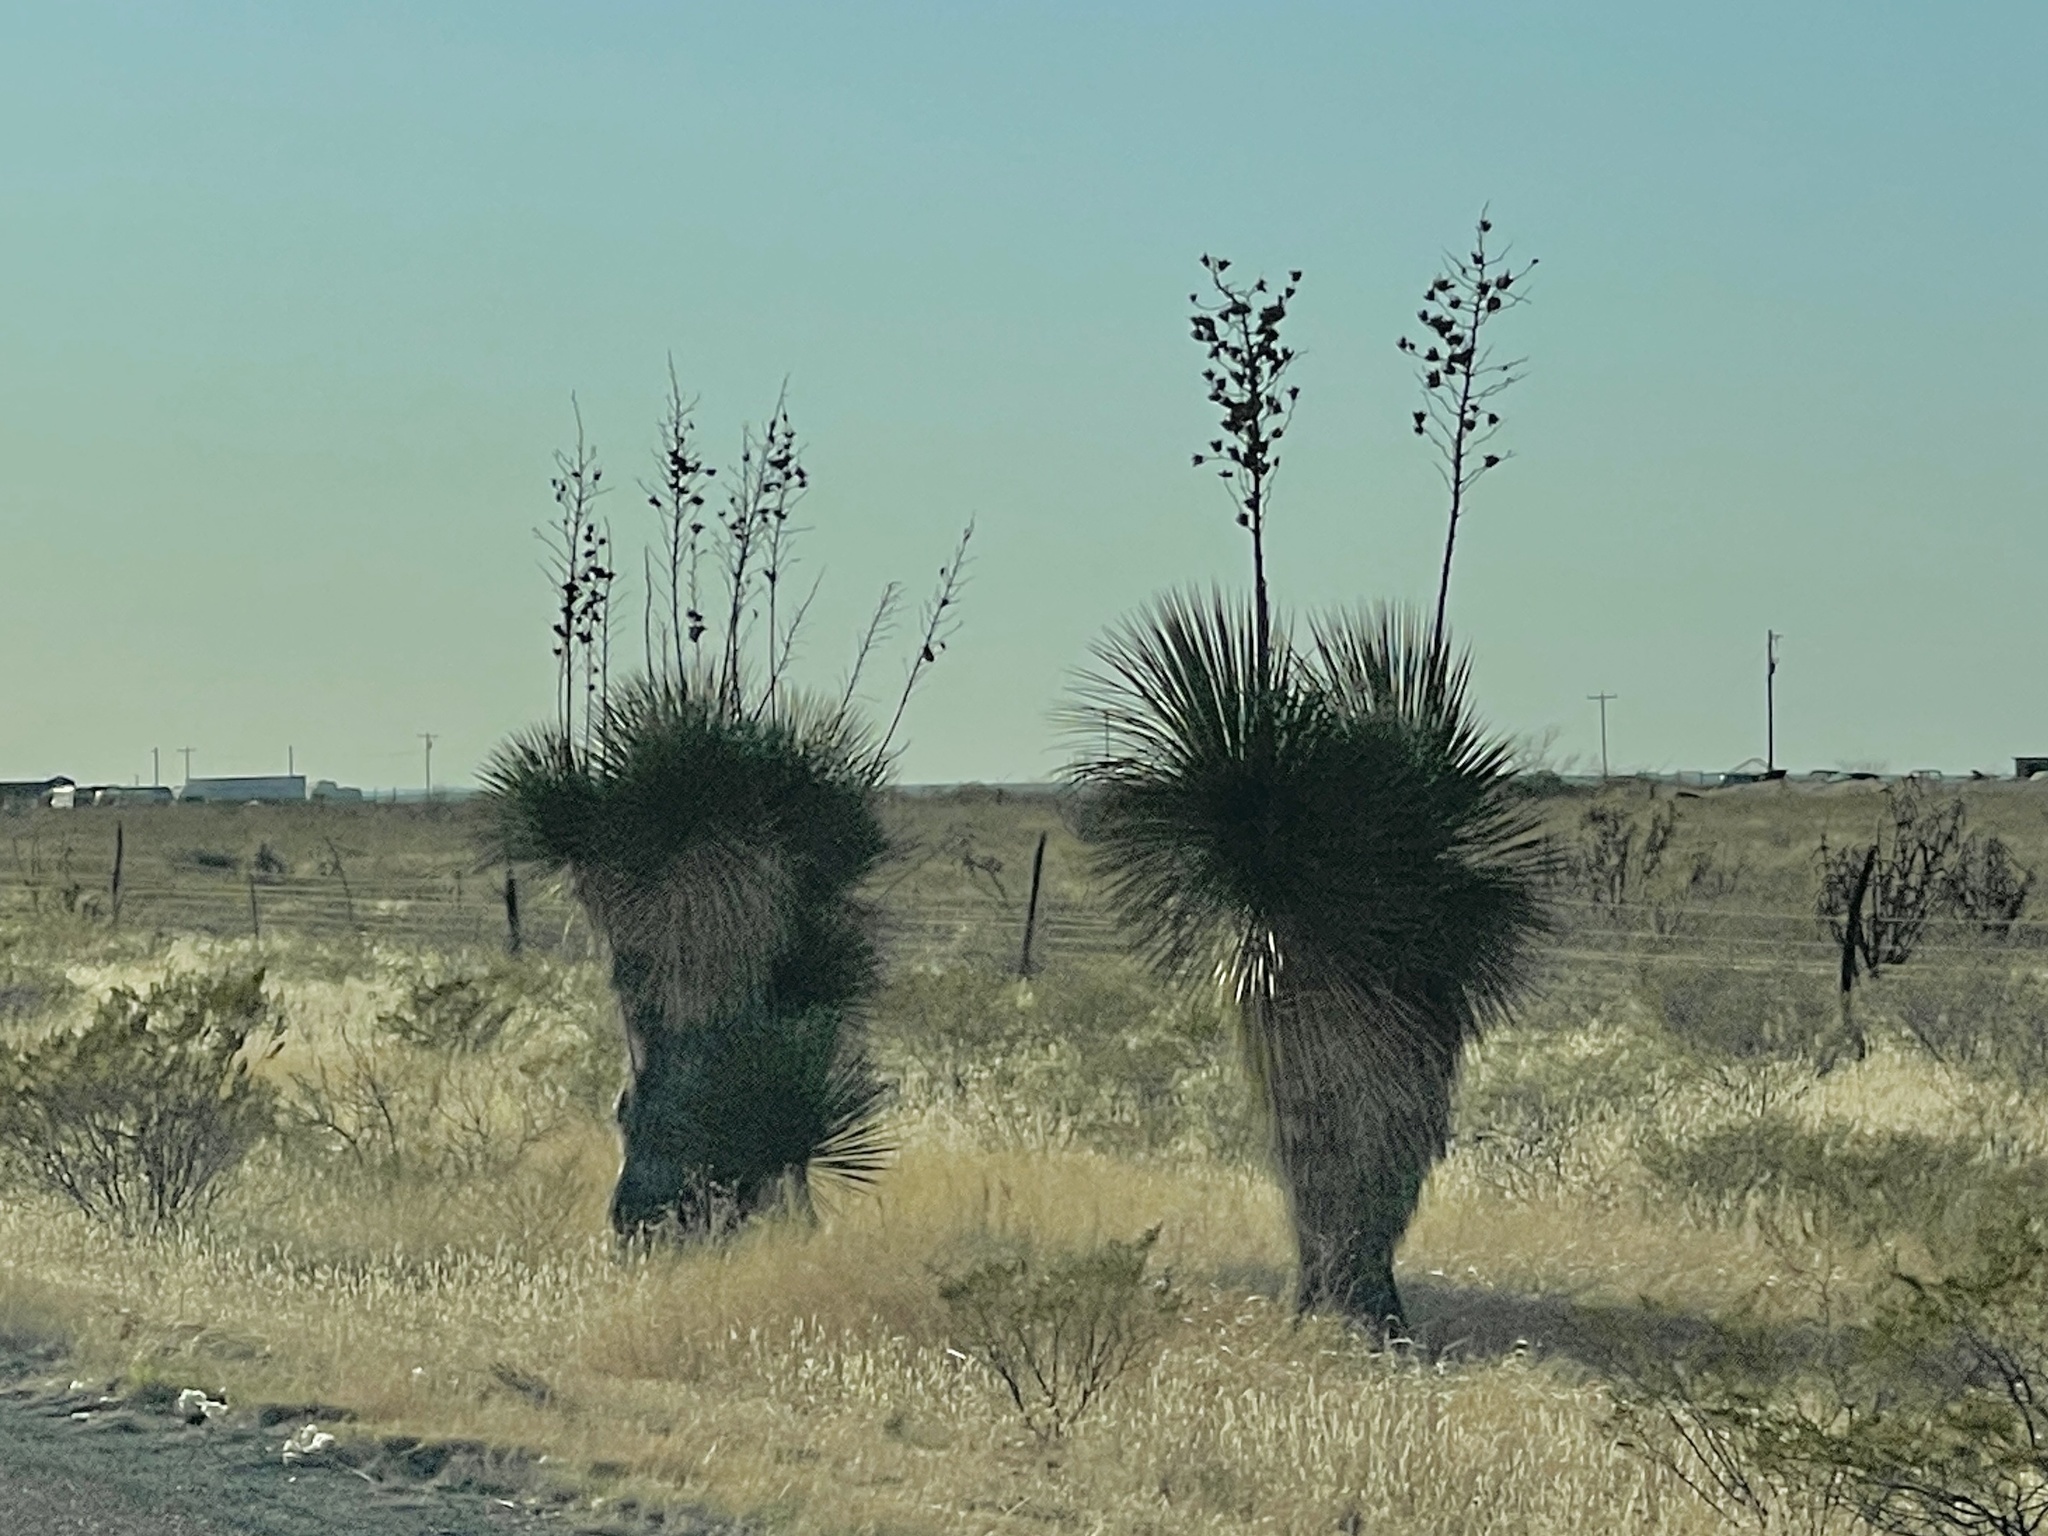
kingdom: Plantae
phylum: Tracheophyta
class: Liliopsida
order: Asparagales
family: Asparagaceae
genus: Yucca
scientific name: Yucca elata
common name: Palmella
